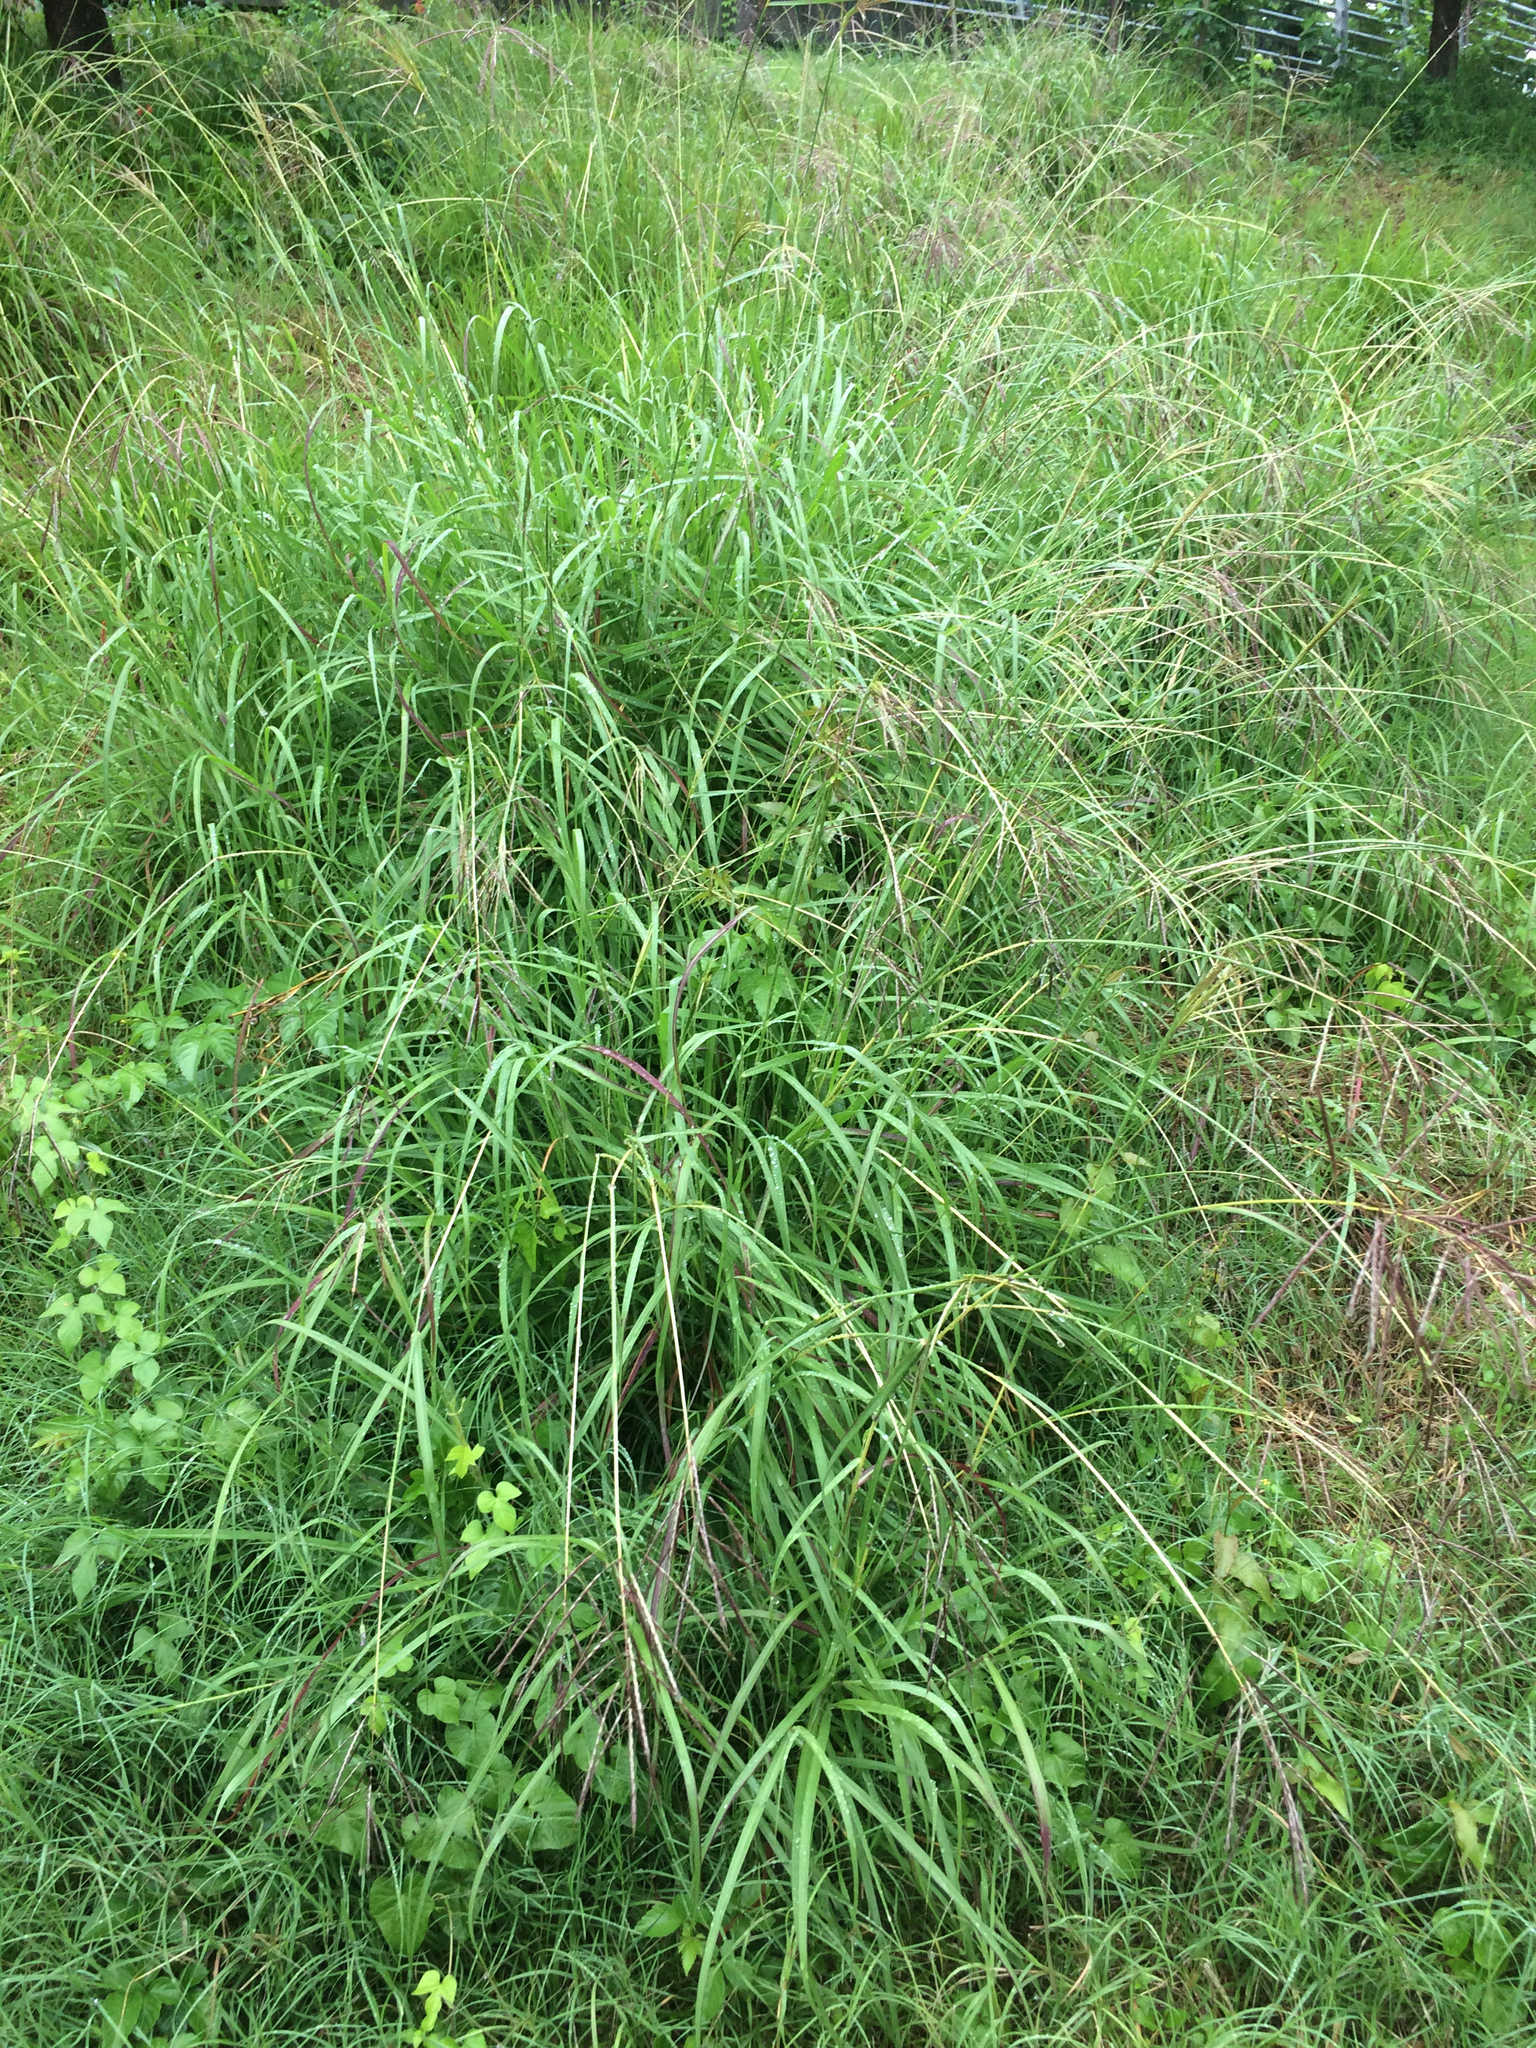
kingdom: Plantae
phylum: Tracheophyta
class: Liliopsida
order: Poales
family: Poaceae
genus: Megathyrsus
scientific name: Megathyrsus maximus
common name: Guineagrass
